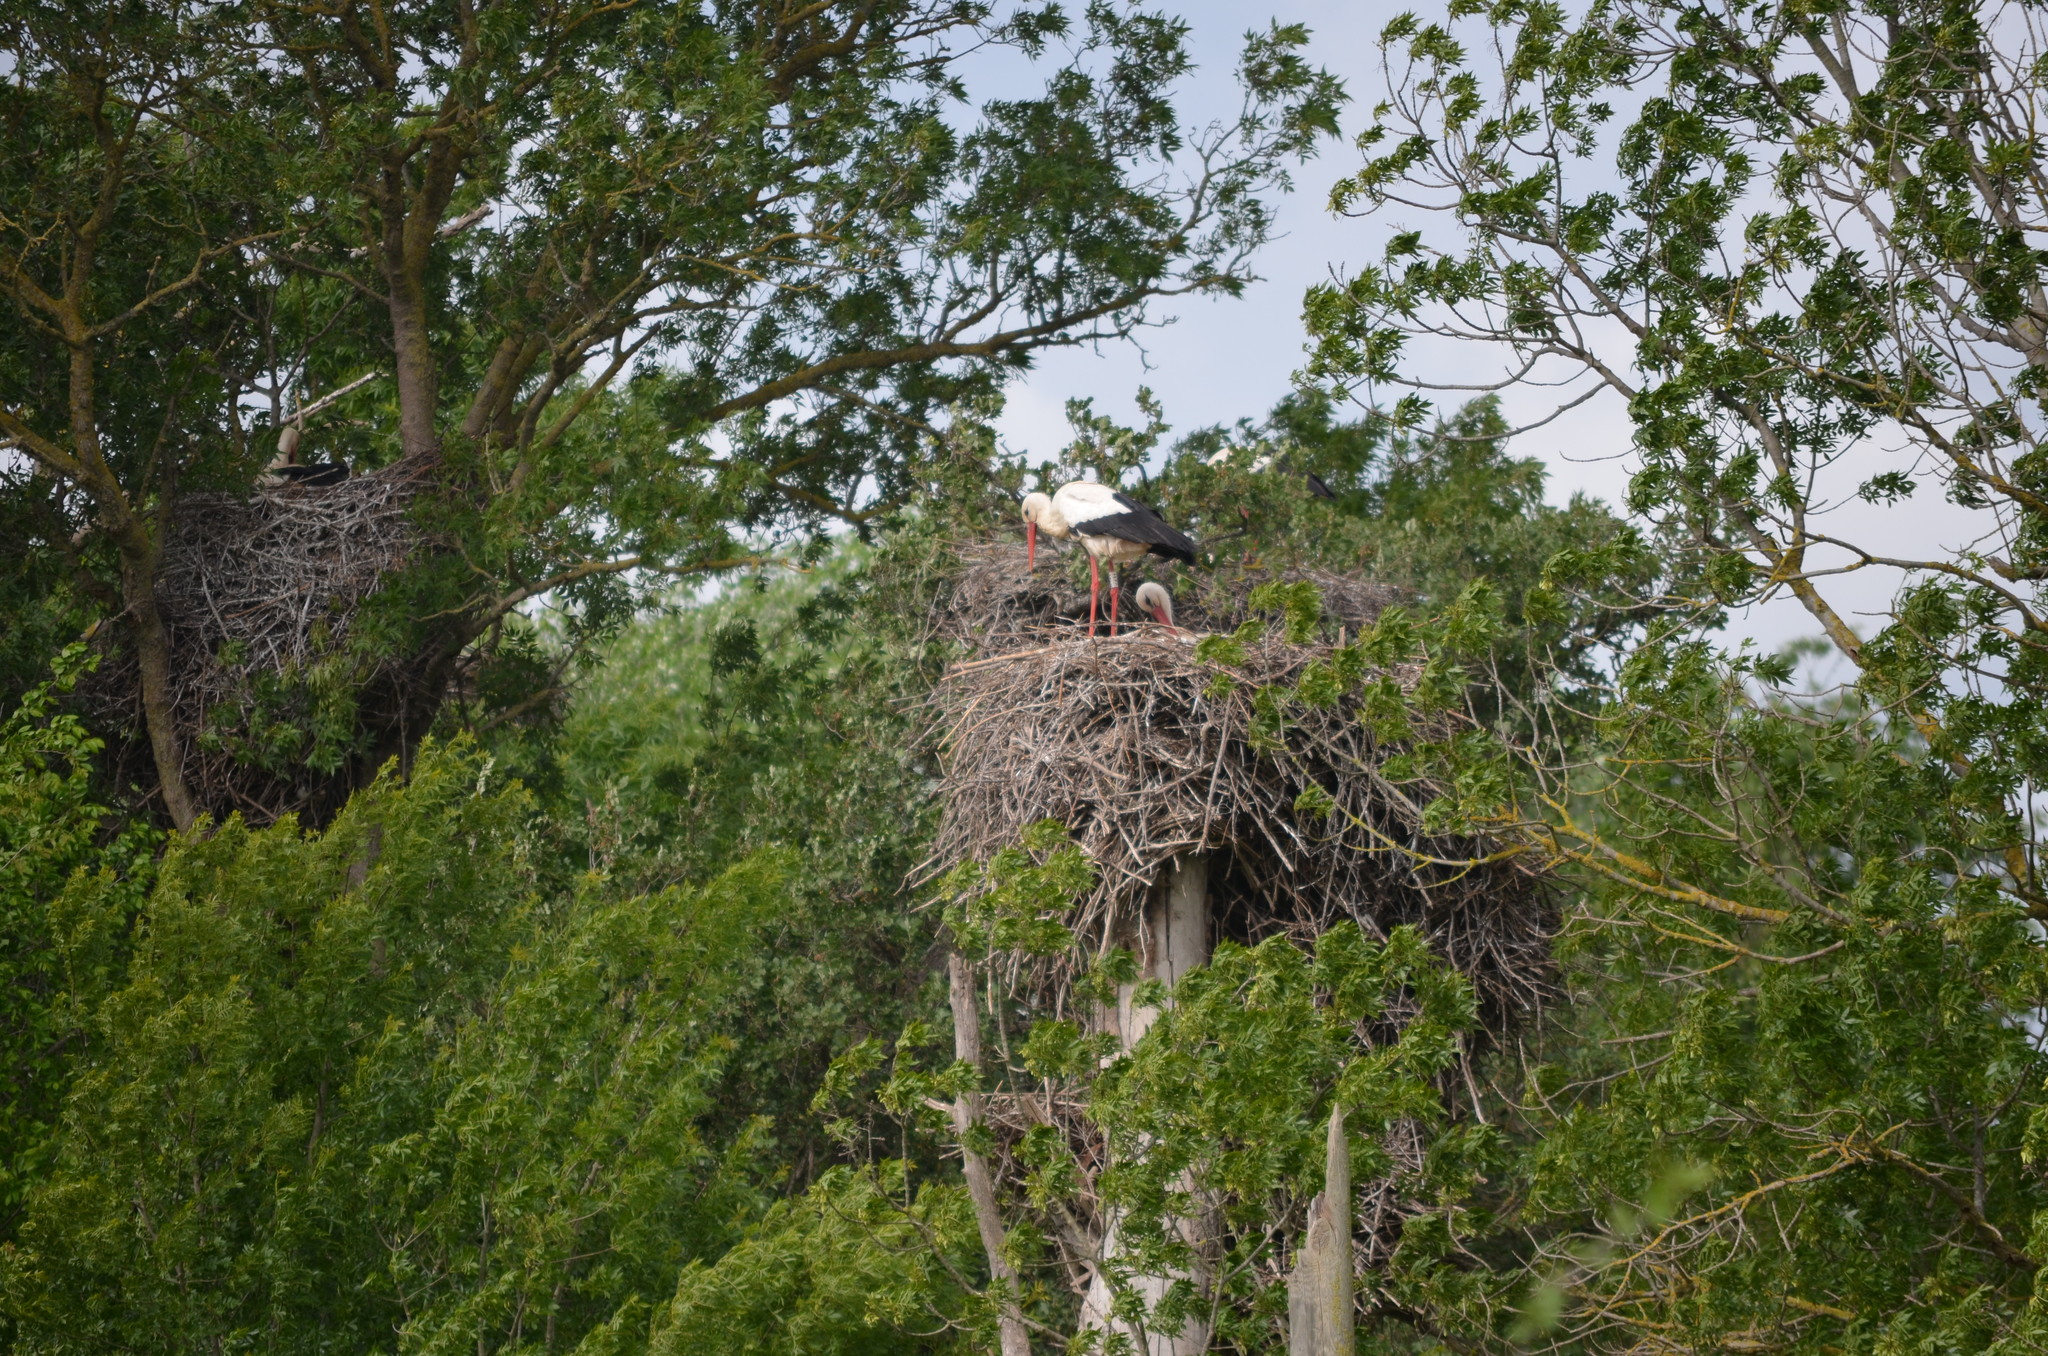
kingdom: Animalia
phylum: Chordata
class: Aves
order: Ciconiiformes
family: Ciconiidae
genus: Ciconia
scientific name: Ciconia ciconia
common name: White stork
